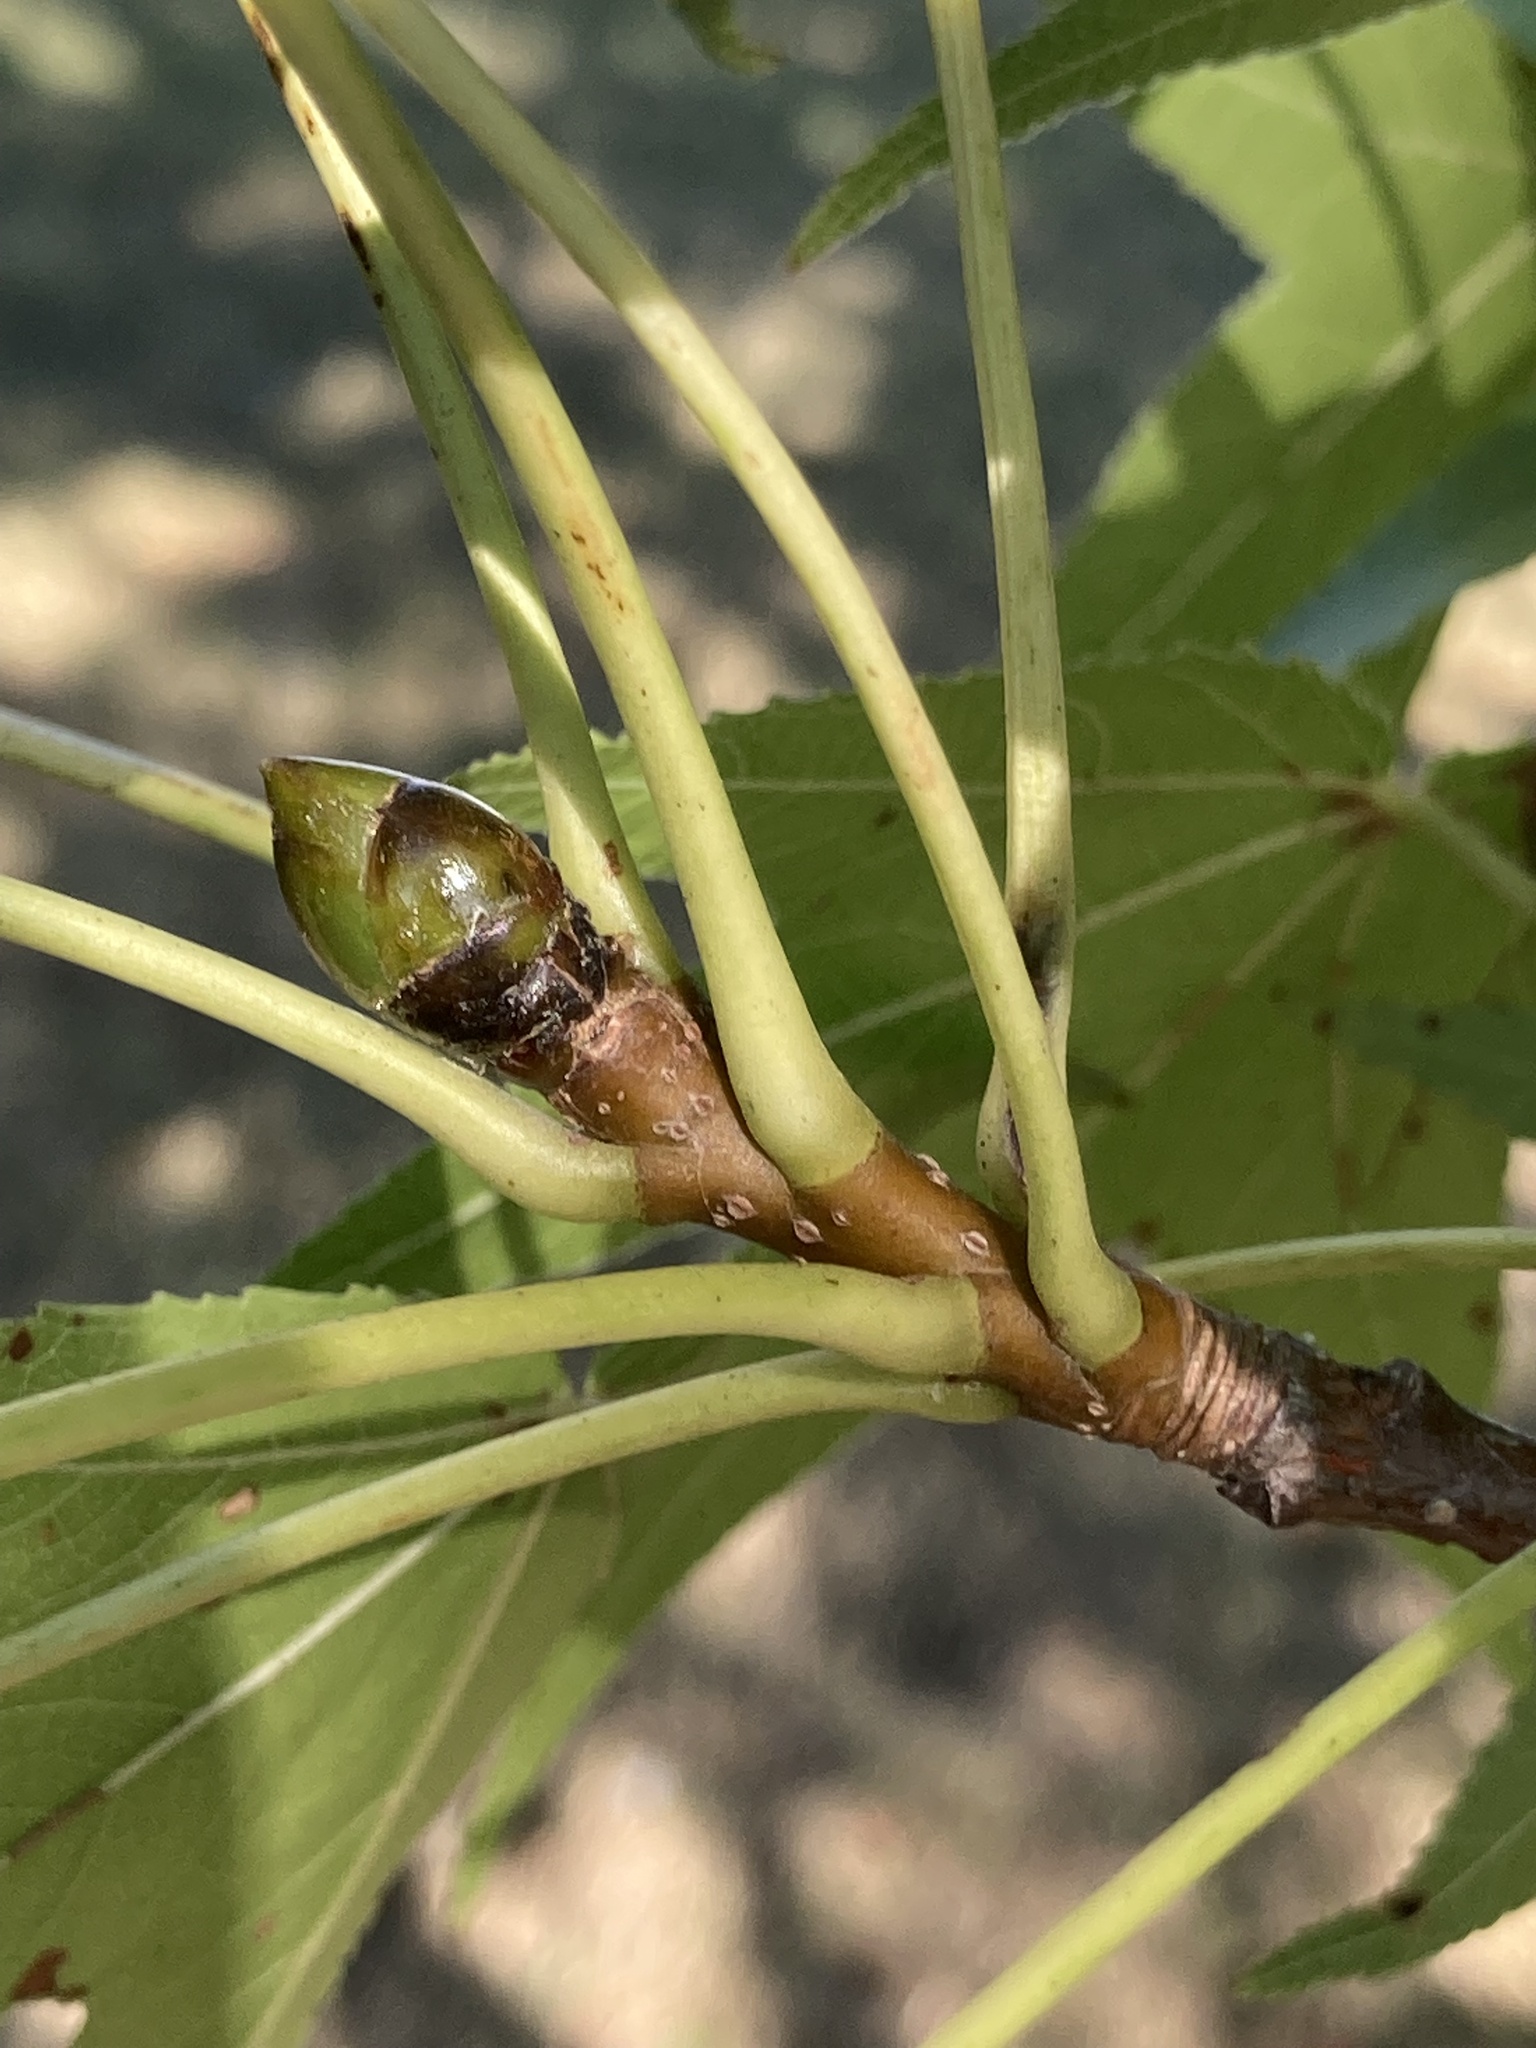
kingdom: Plantae
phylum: Tracheophyta
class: Magnoliopsida
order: Saxifragales
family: Altingiaceae
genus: Liquidambar
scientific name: Liquidambar styraciflua
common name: Sweet gum
